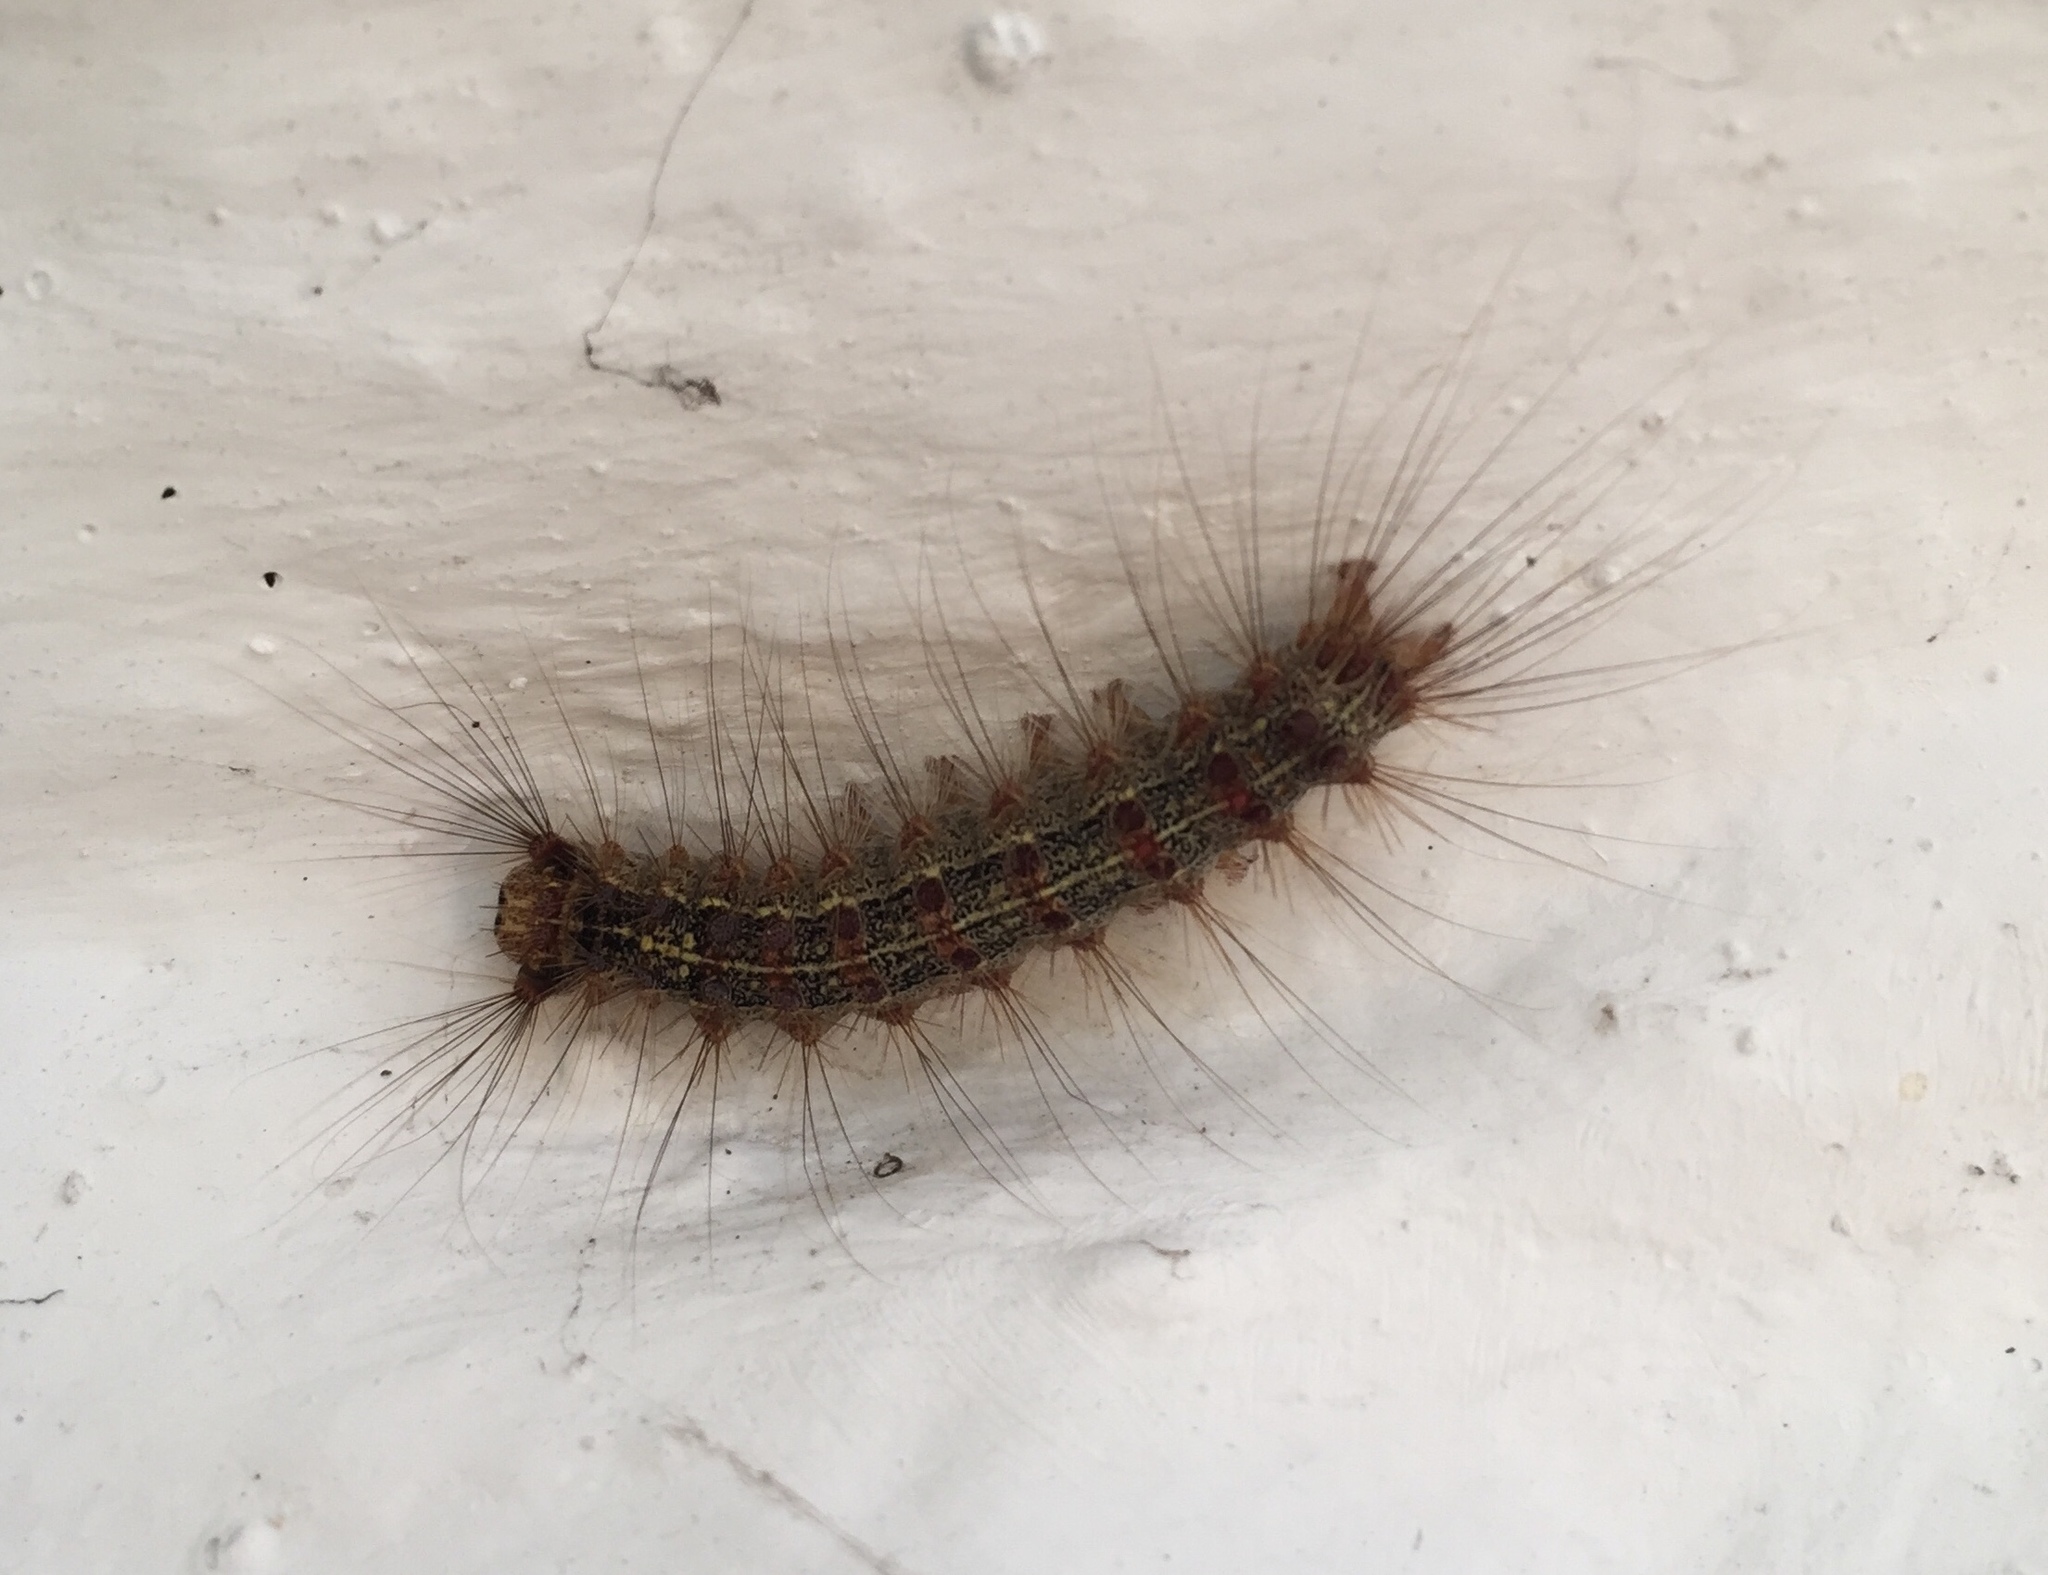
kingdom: Animalia
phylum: Arthropoda
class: Insecta
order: Lepidoptera
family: Erebidae
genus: Lymantria
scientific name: Lymantria dispar
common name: Gypsy moth
